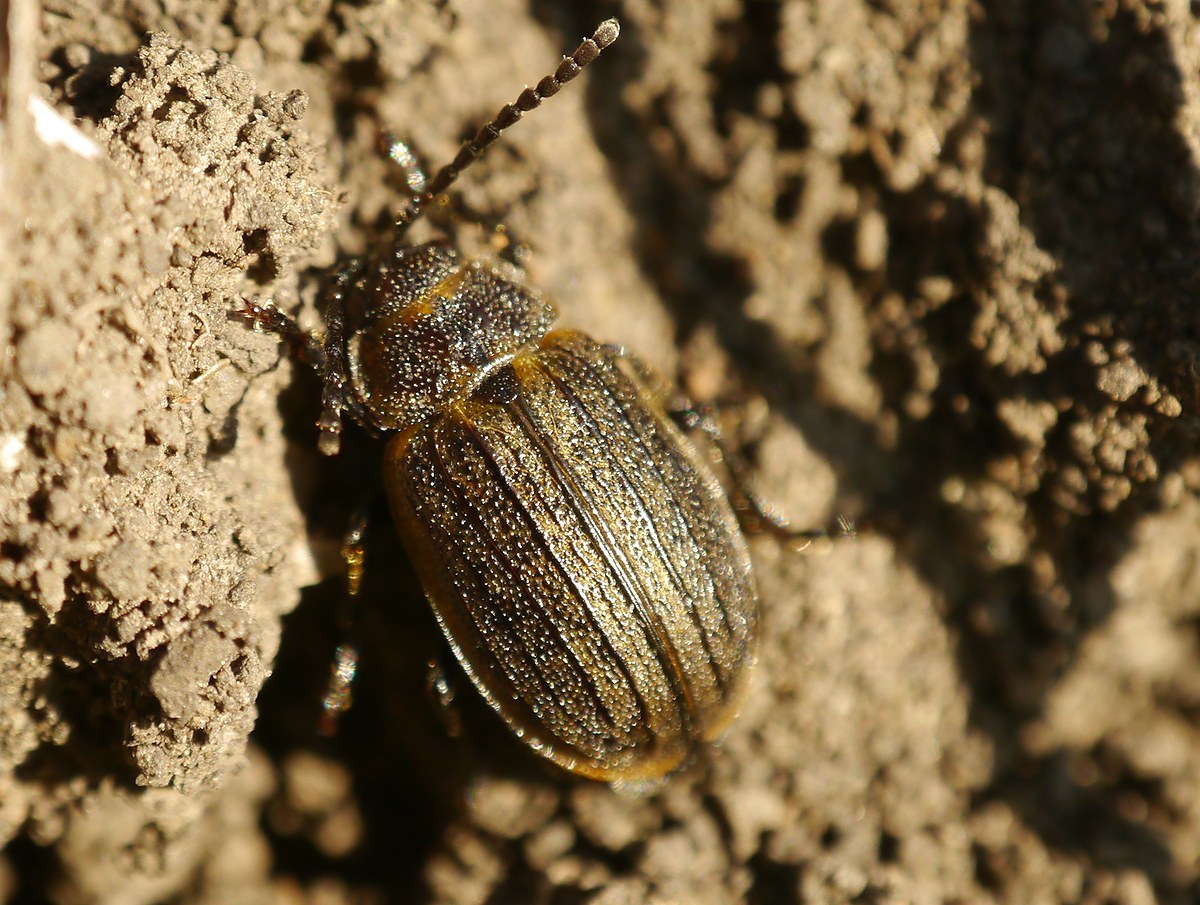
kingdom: Animalia
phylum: Arthropoda
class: Insecta
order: Coleoptera
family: Chrysomelidae
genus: Galeruca
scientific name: Galeruca pomonae
